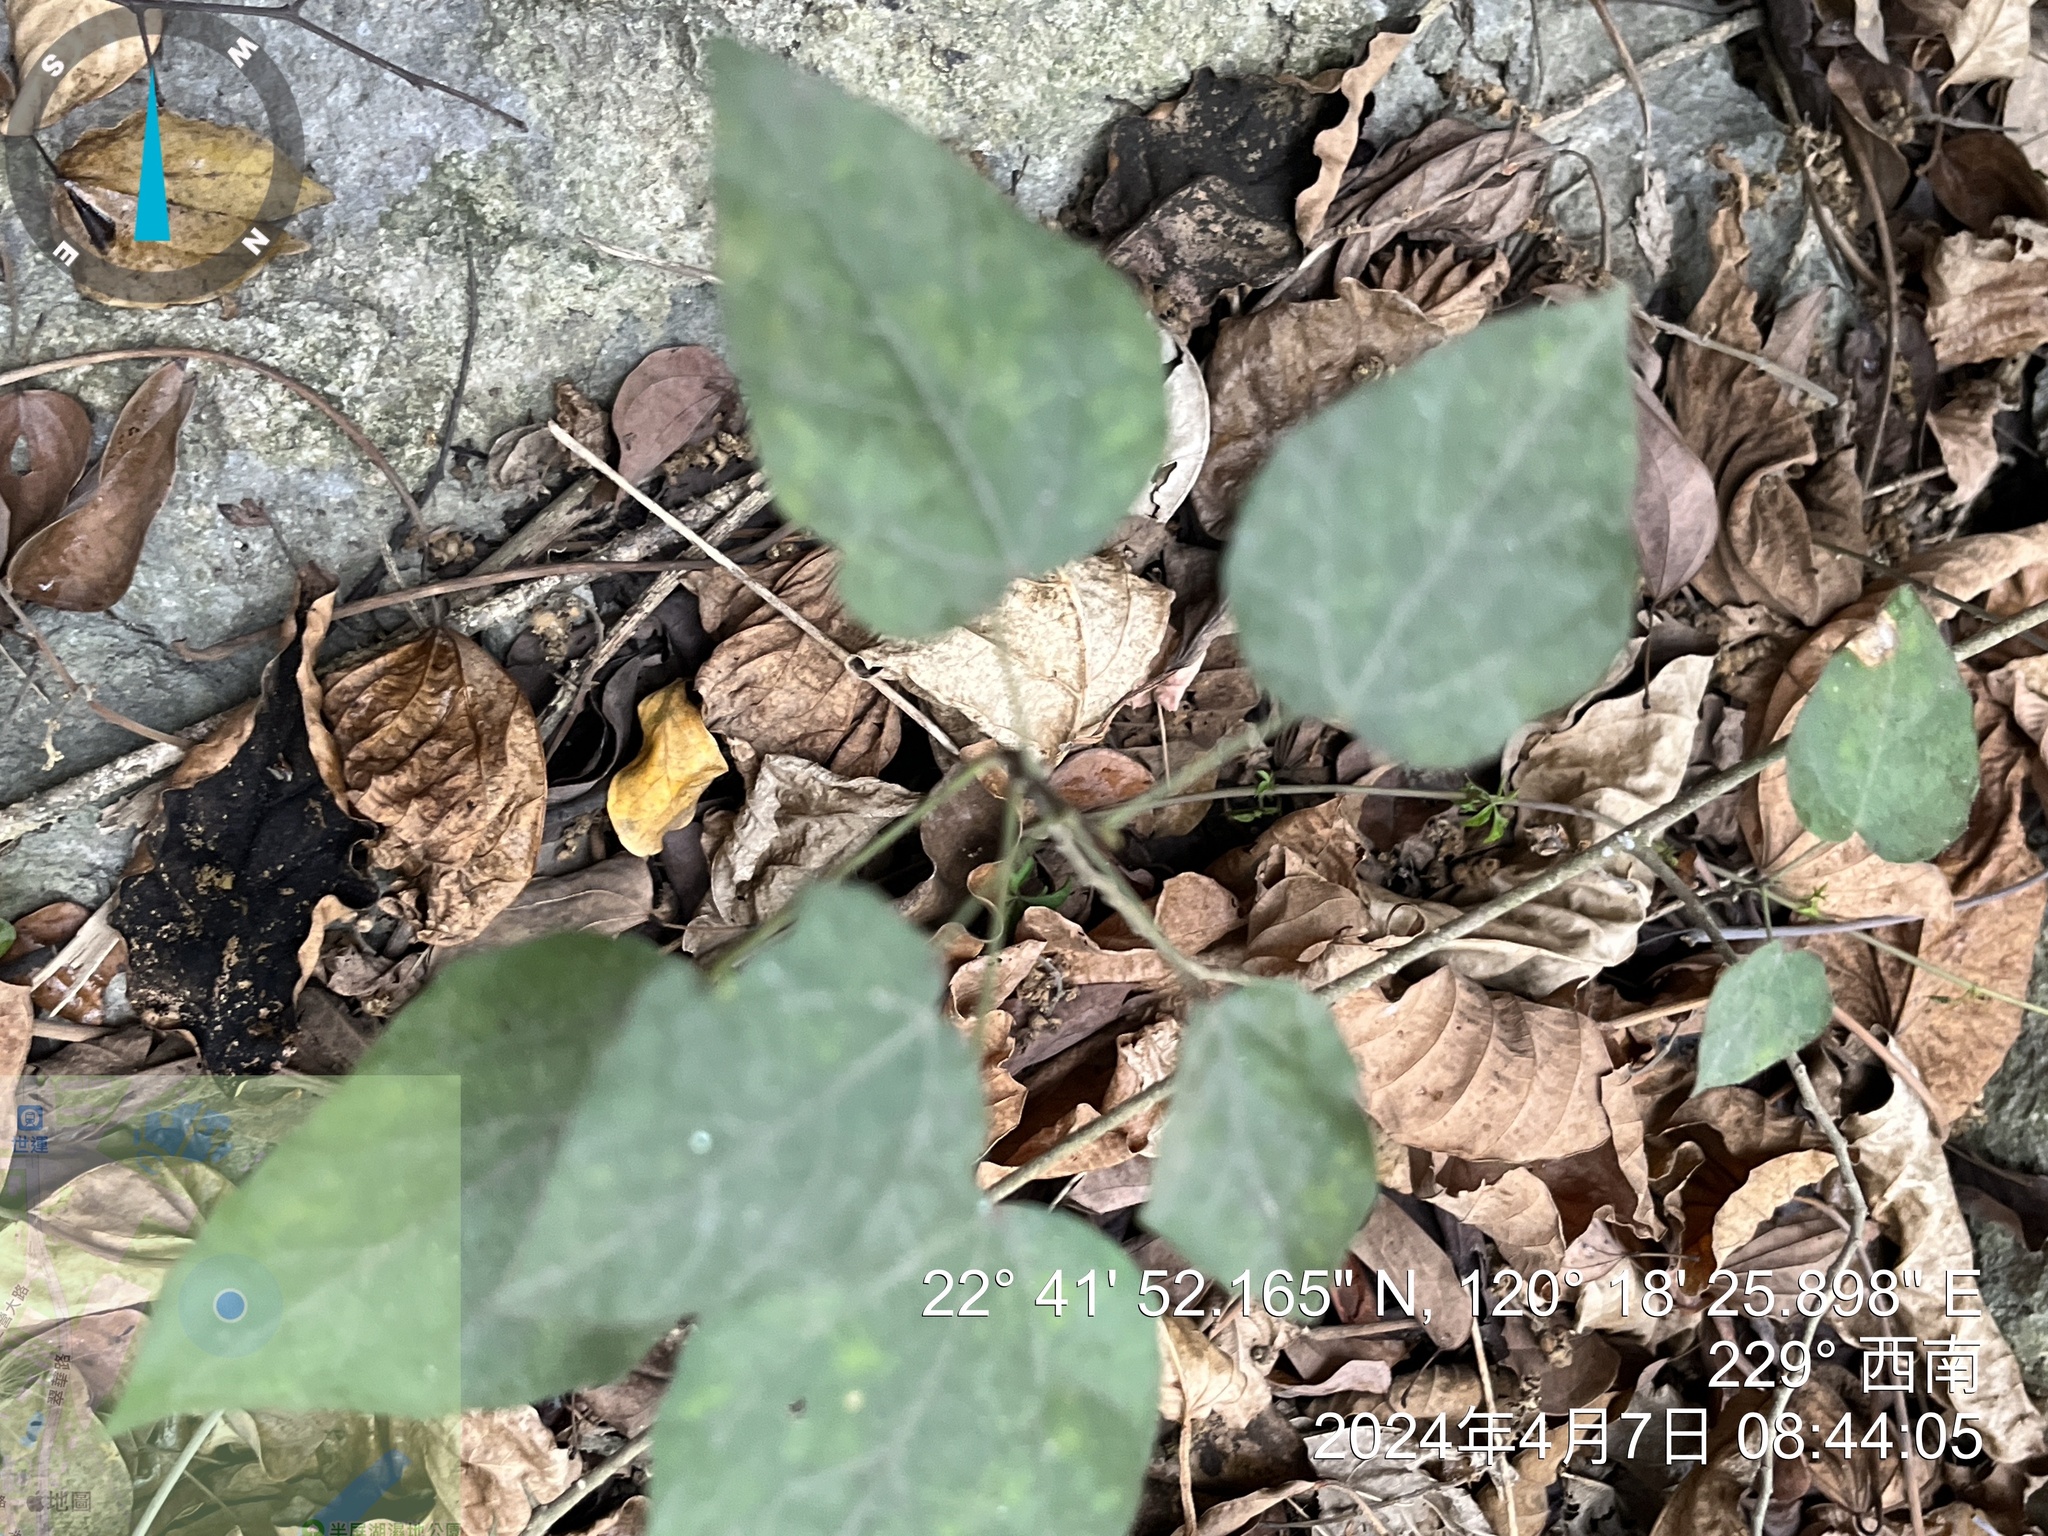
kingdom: Plantae
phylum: Tracheophyta
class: Magnoliopsida
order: Malpighiales
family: Euphorbiaceae
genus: Mallotus
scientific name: Mallotus repandus
